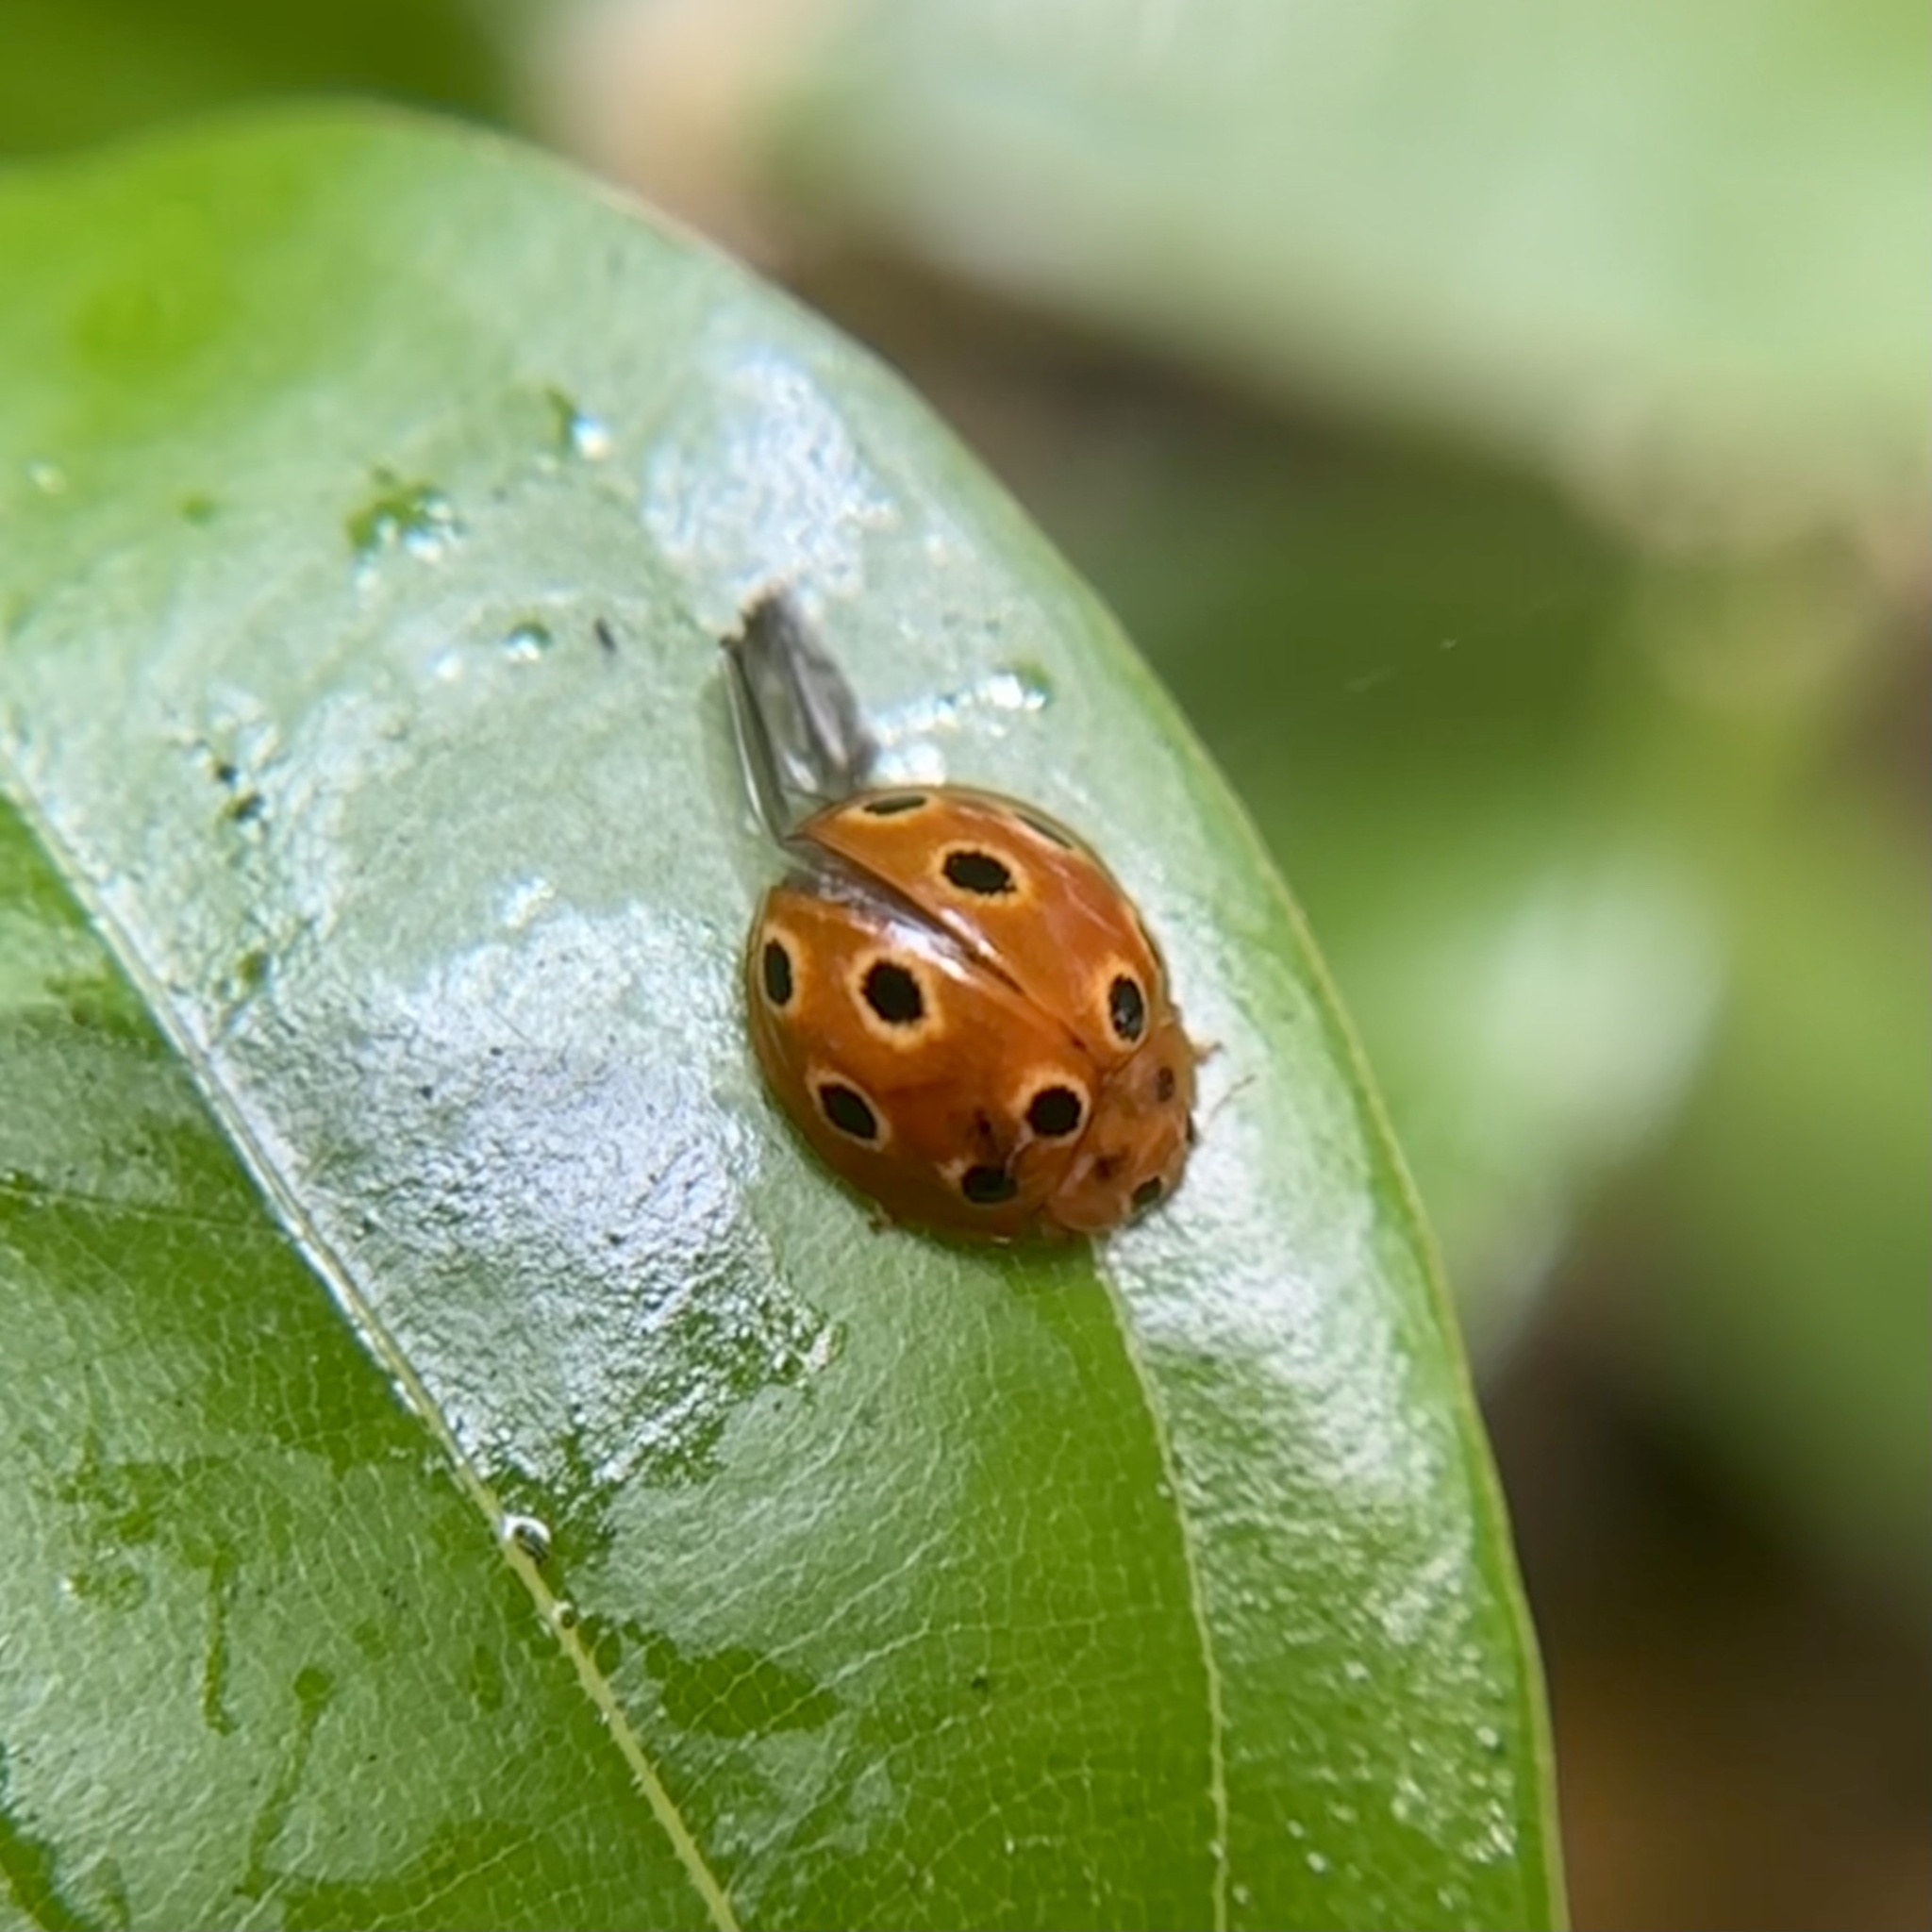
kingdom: Animalia
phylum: Arthropoda
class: Insecta
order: Coleoptera
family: Coccinellidae
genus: Microcaria
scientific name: Microcaria
